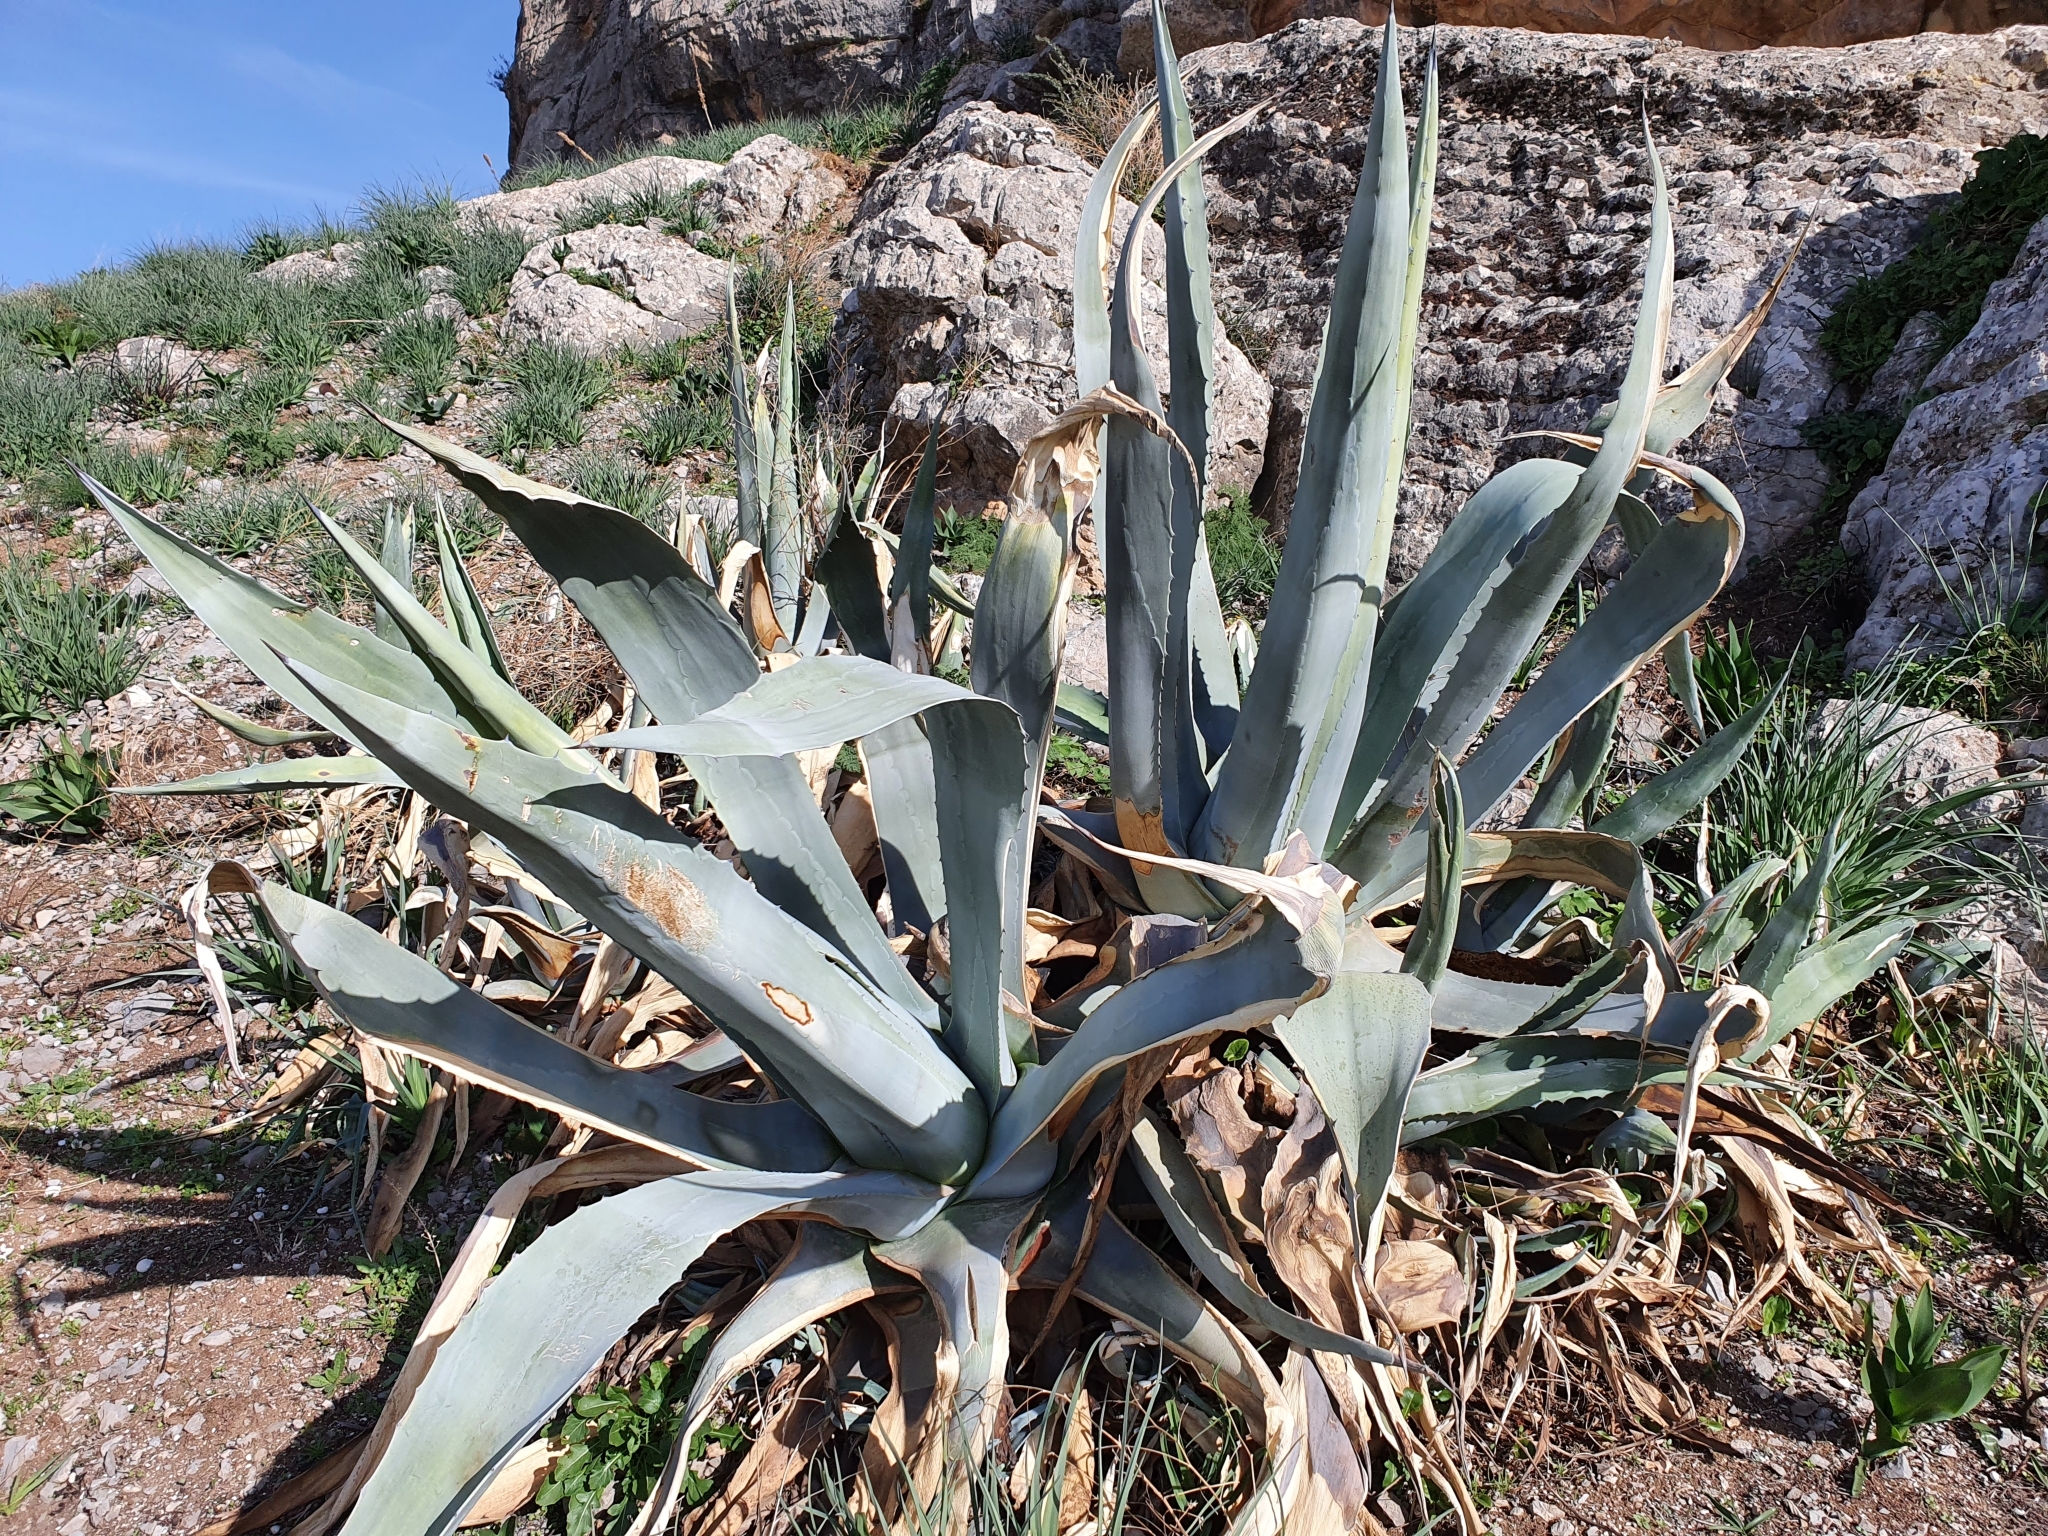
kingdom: Plantae
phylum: Tracheophyta
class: Liliopsida
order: Asparagales
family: Asparagaceae
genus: Agave
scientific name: Agave americana
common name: Centuryplant
